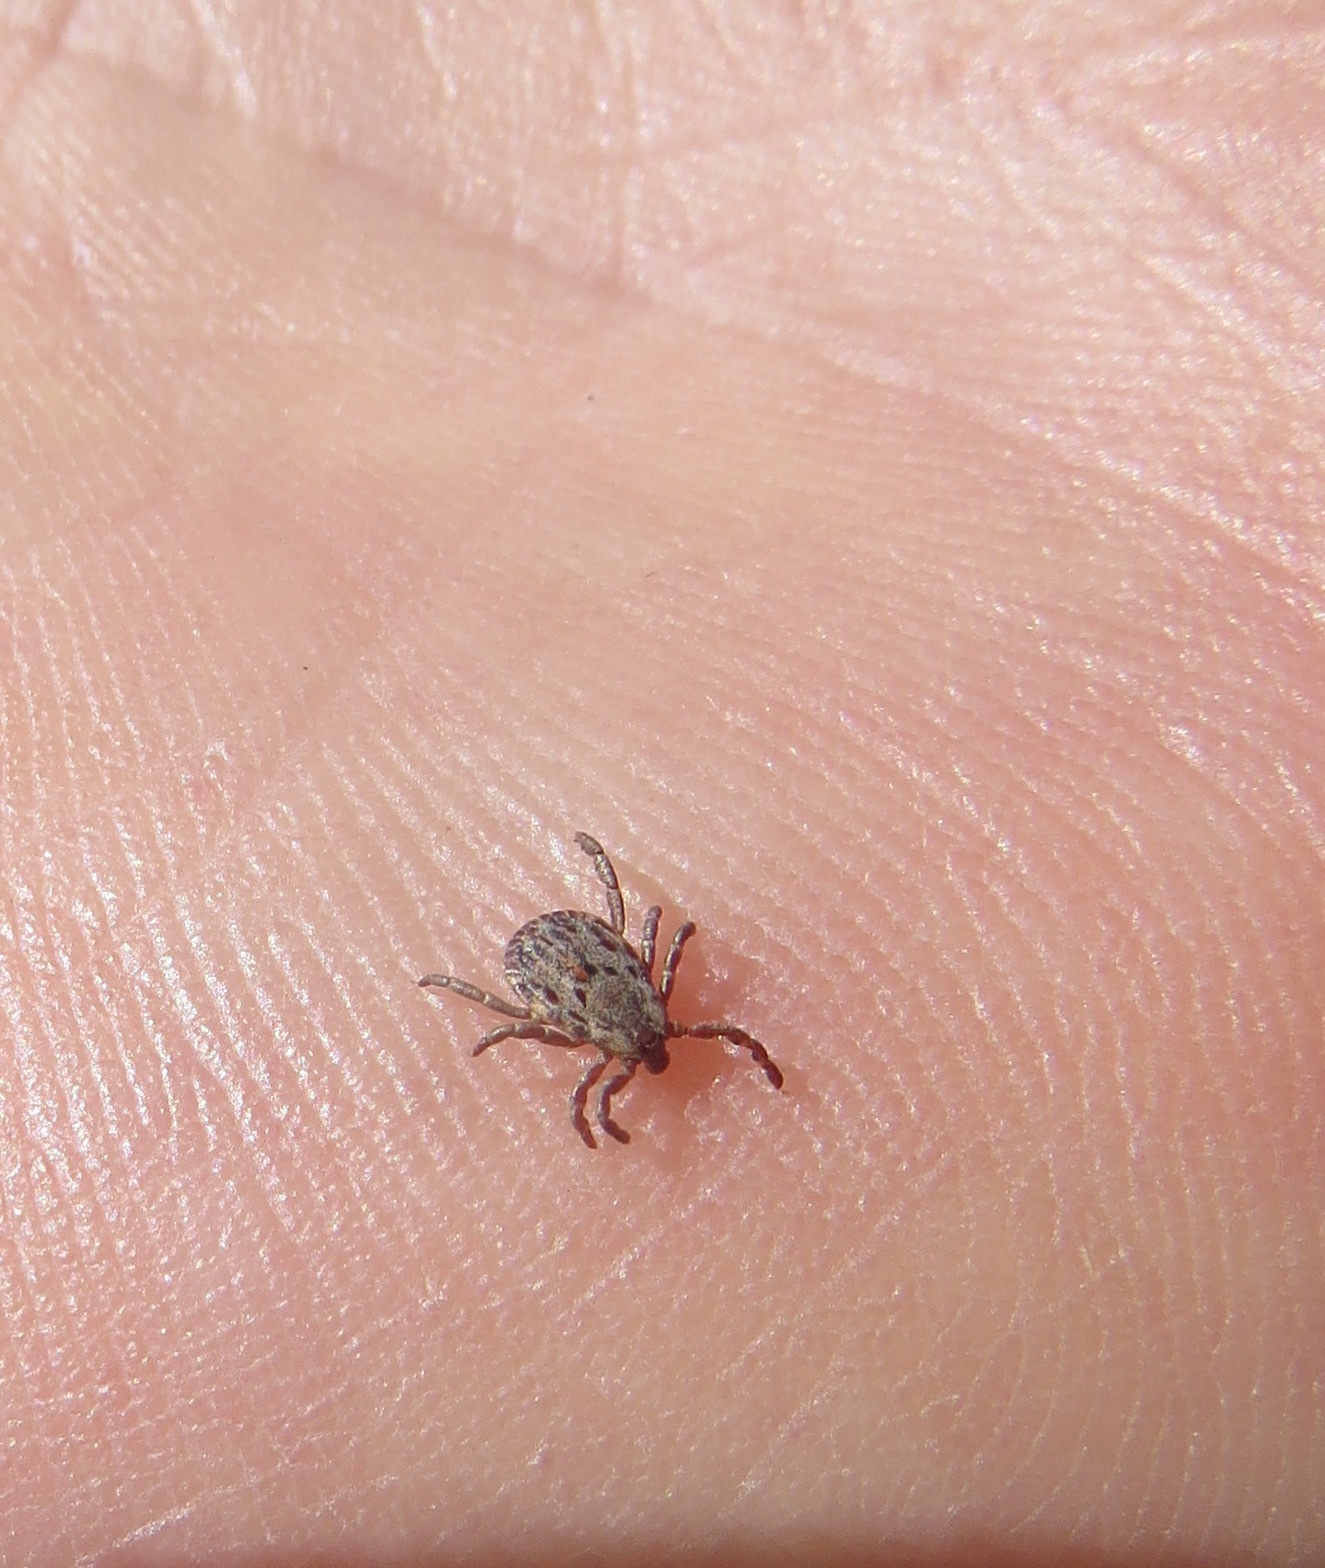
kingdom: Animalia
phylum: Arthropoda
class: Arachnida
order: Ixodida
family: Ixodidae
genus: Dermacentor
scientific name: Dermacentor occidentalis
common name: Net tick
